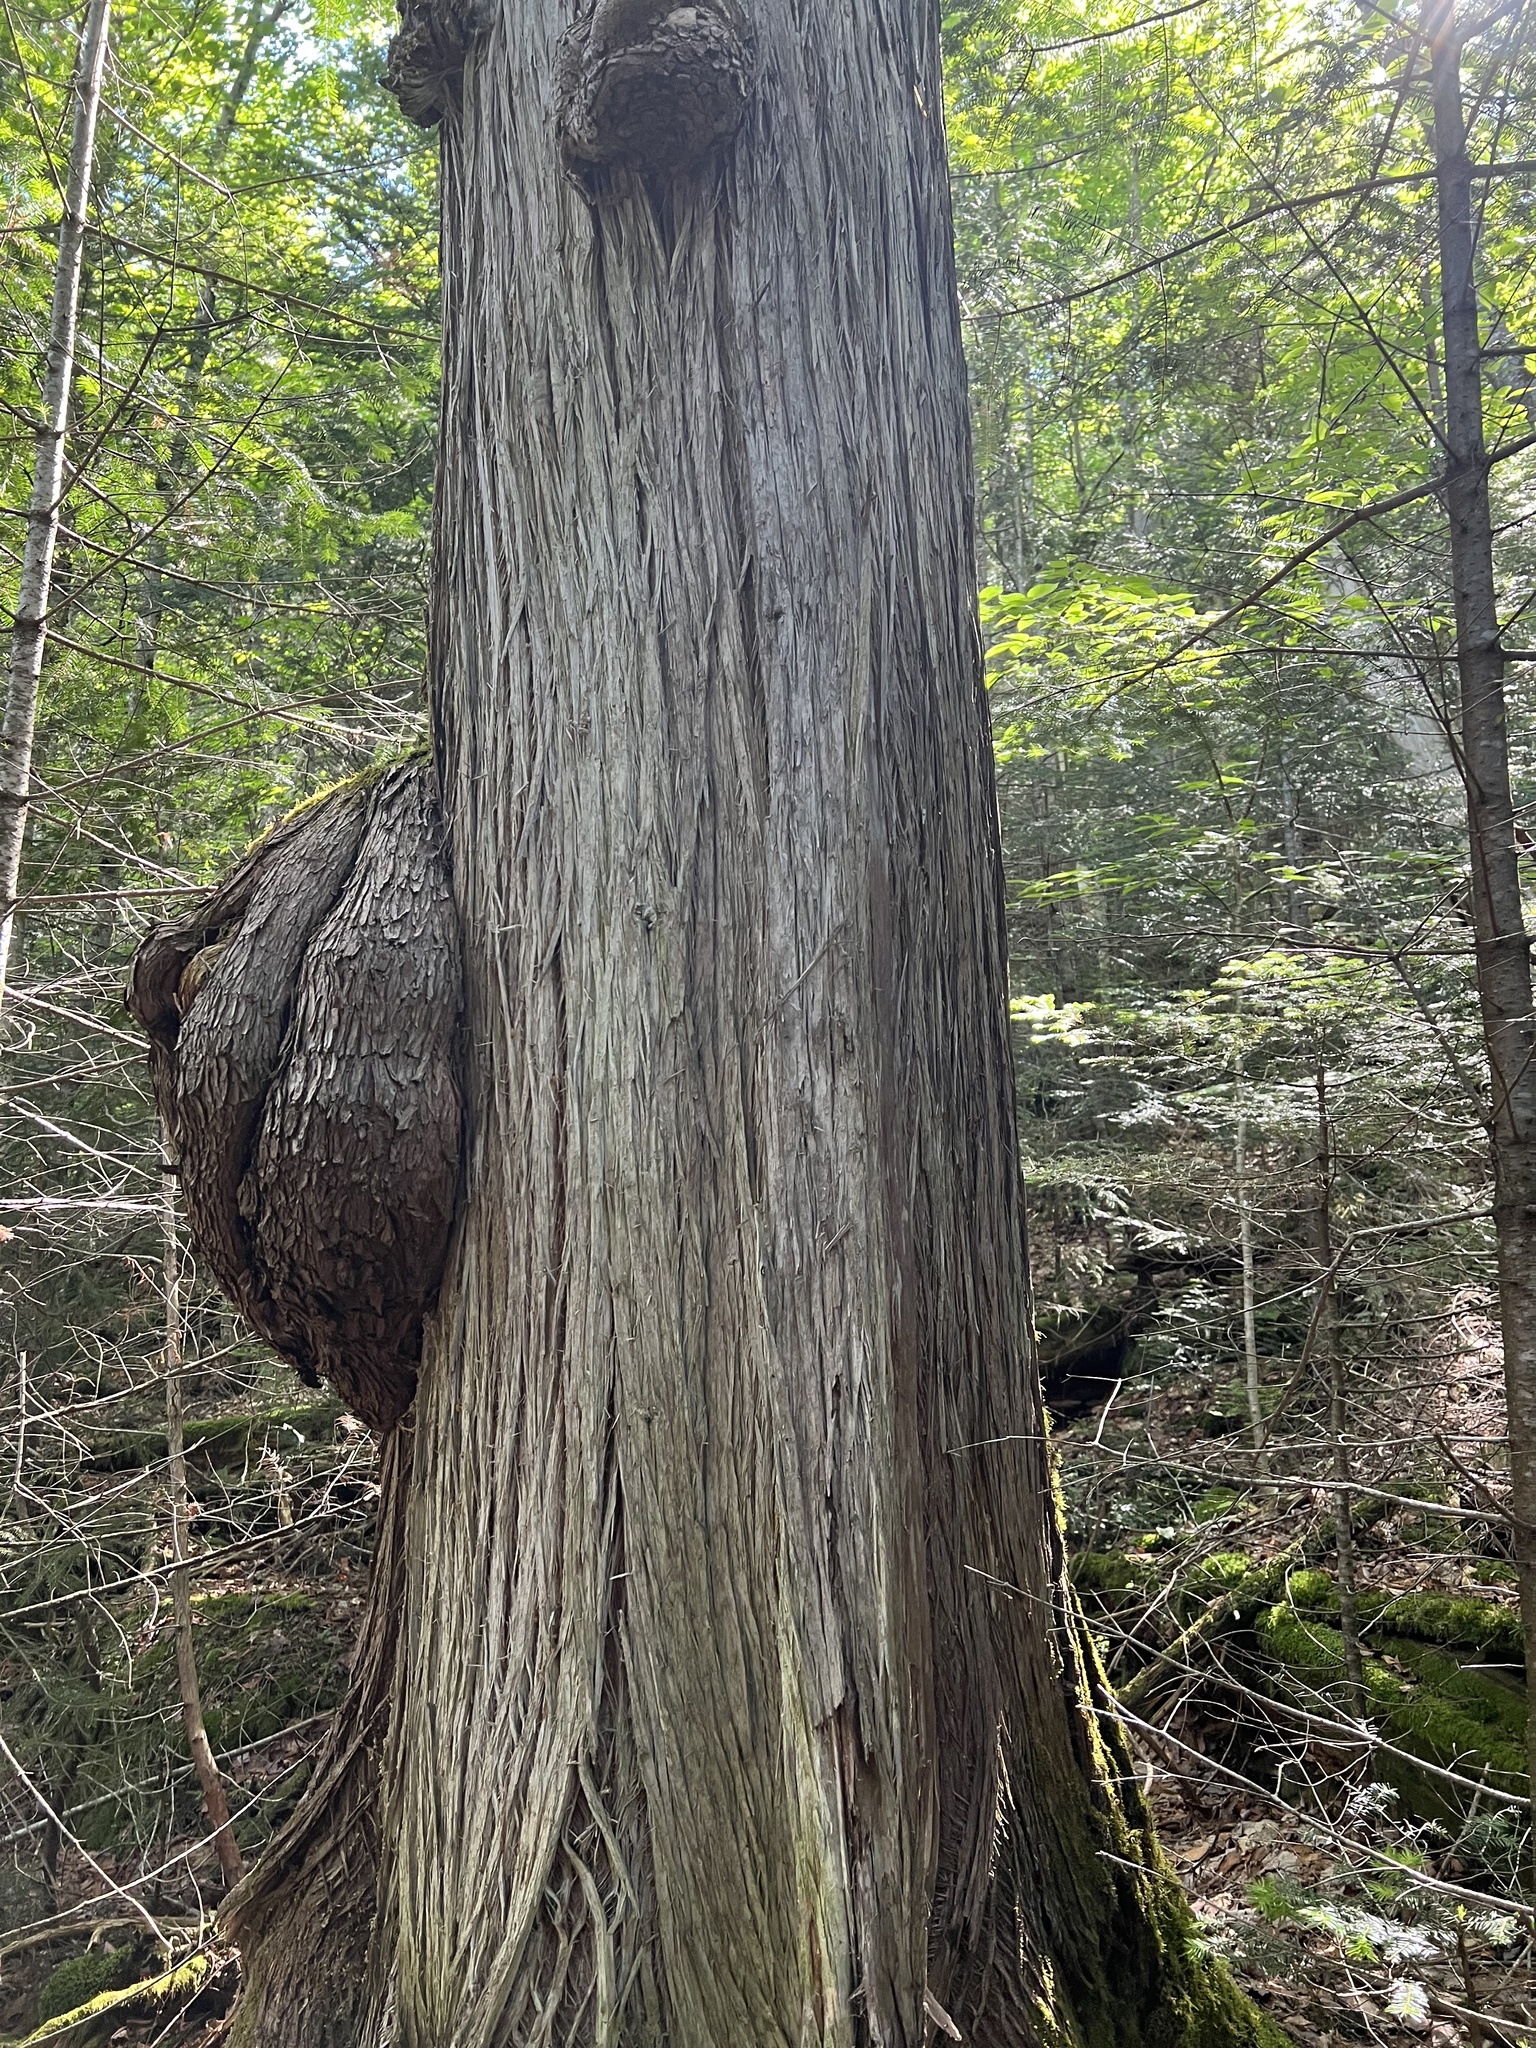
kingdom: Bacteria
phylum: Proteobacteria
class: Alphaproteobacteria
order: Rhizobiales
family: Rhizobiaceae
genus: Rhizobium
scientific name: Rhizobium Agrobacterium radiobacter
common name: Bacterial crown gall
